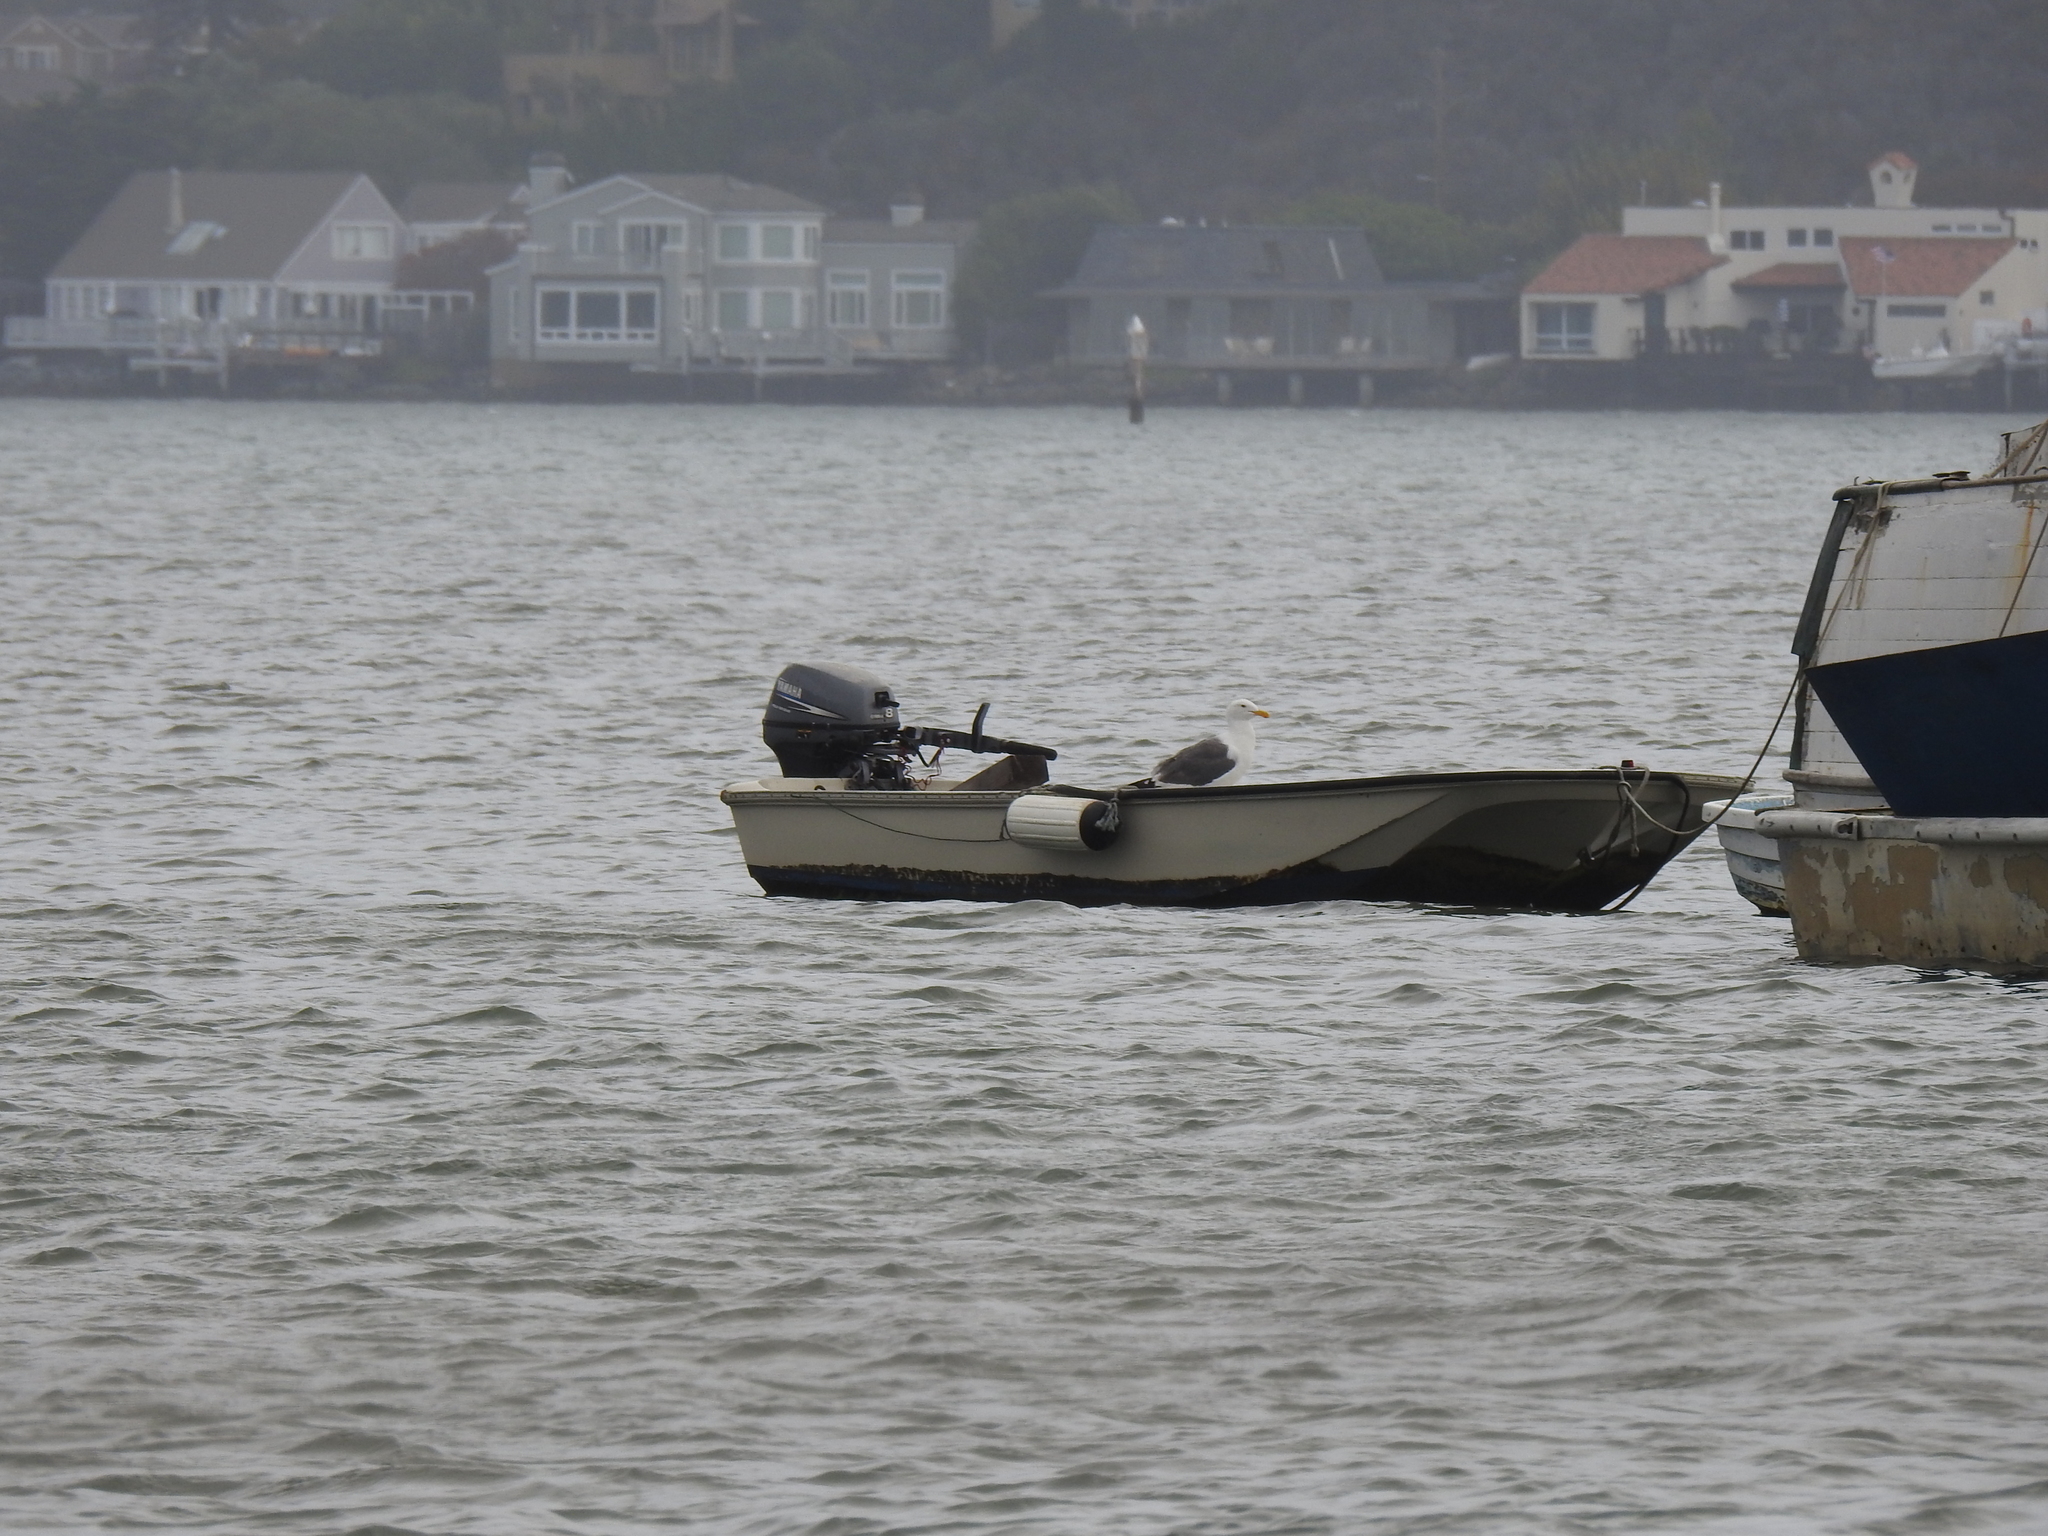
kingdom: Animalia
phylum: Chordata
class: Aves
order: Charadriiformes
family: Laridae
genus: Larus
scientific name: Larus occidentalis
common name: Western gull
